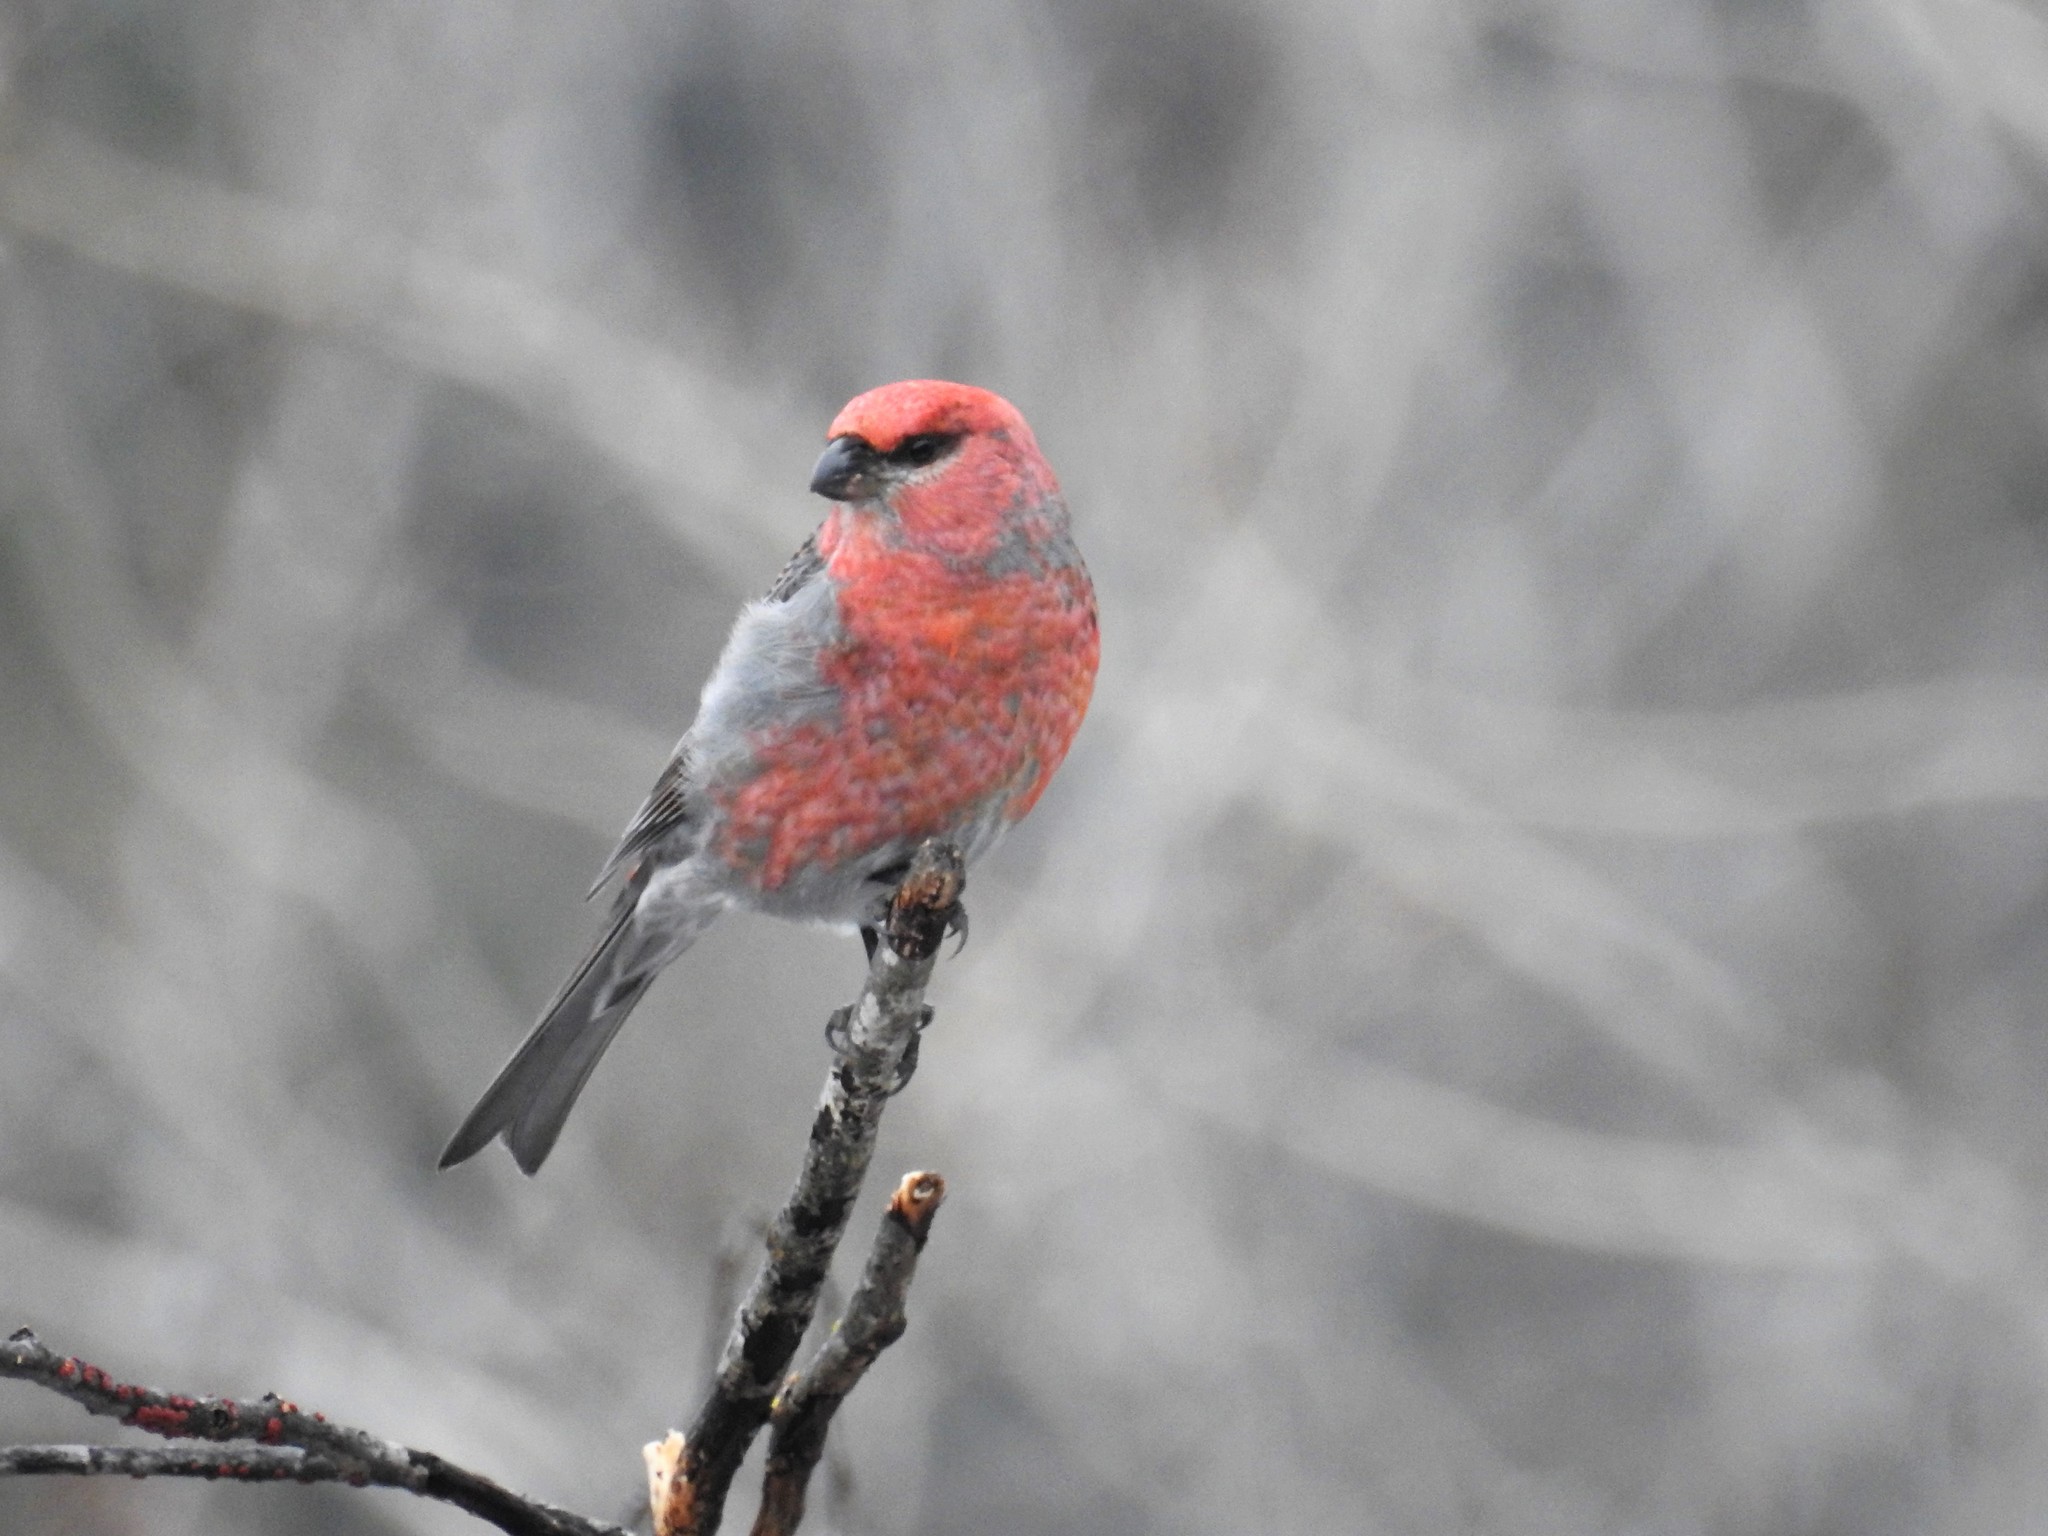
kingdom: Animalia
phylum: Chordata
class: Aves
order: Passeriformes
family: Fringillidae
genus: Pinicola
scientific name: Pinicola enucleator
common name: Pine grosbeak
